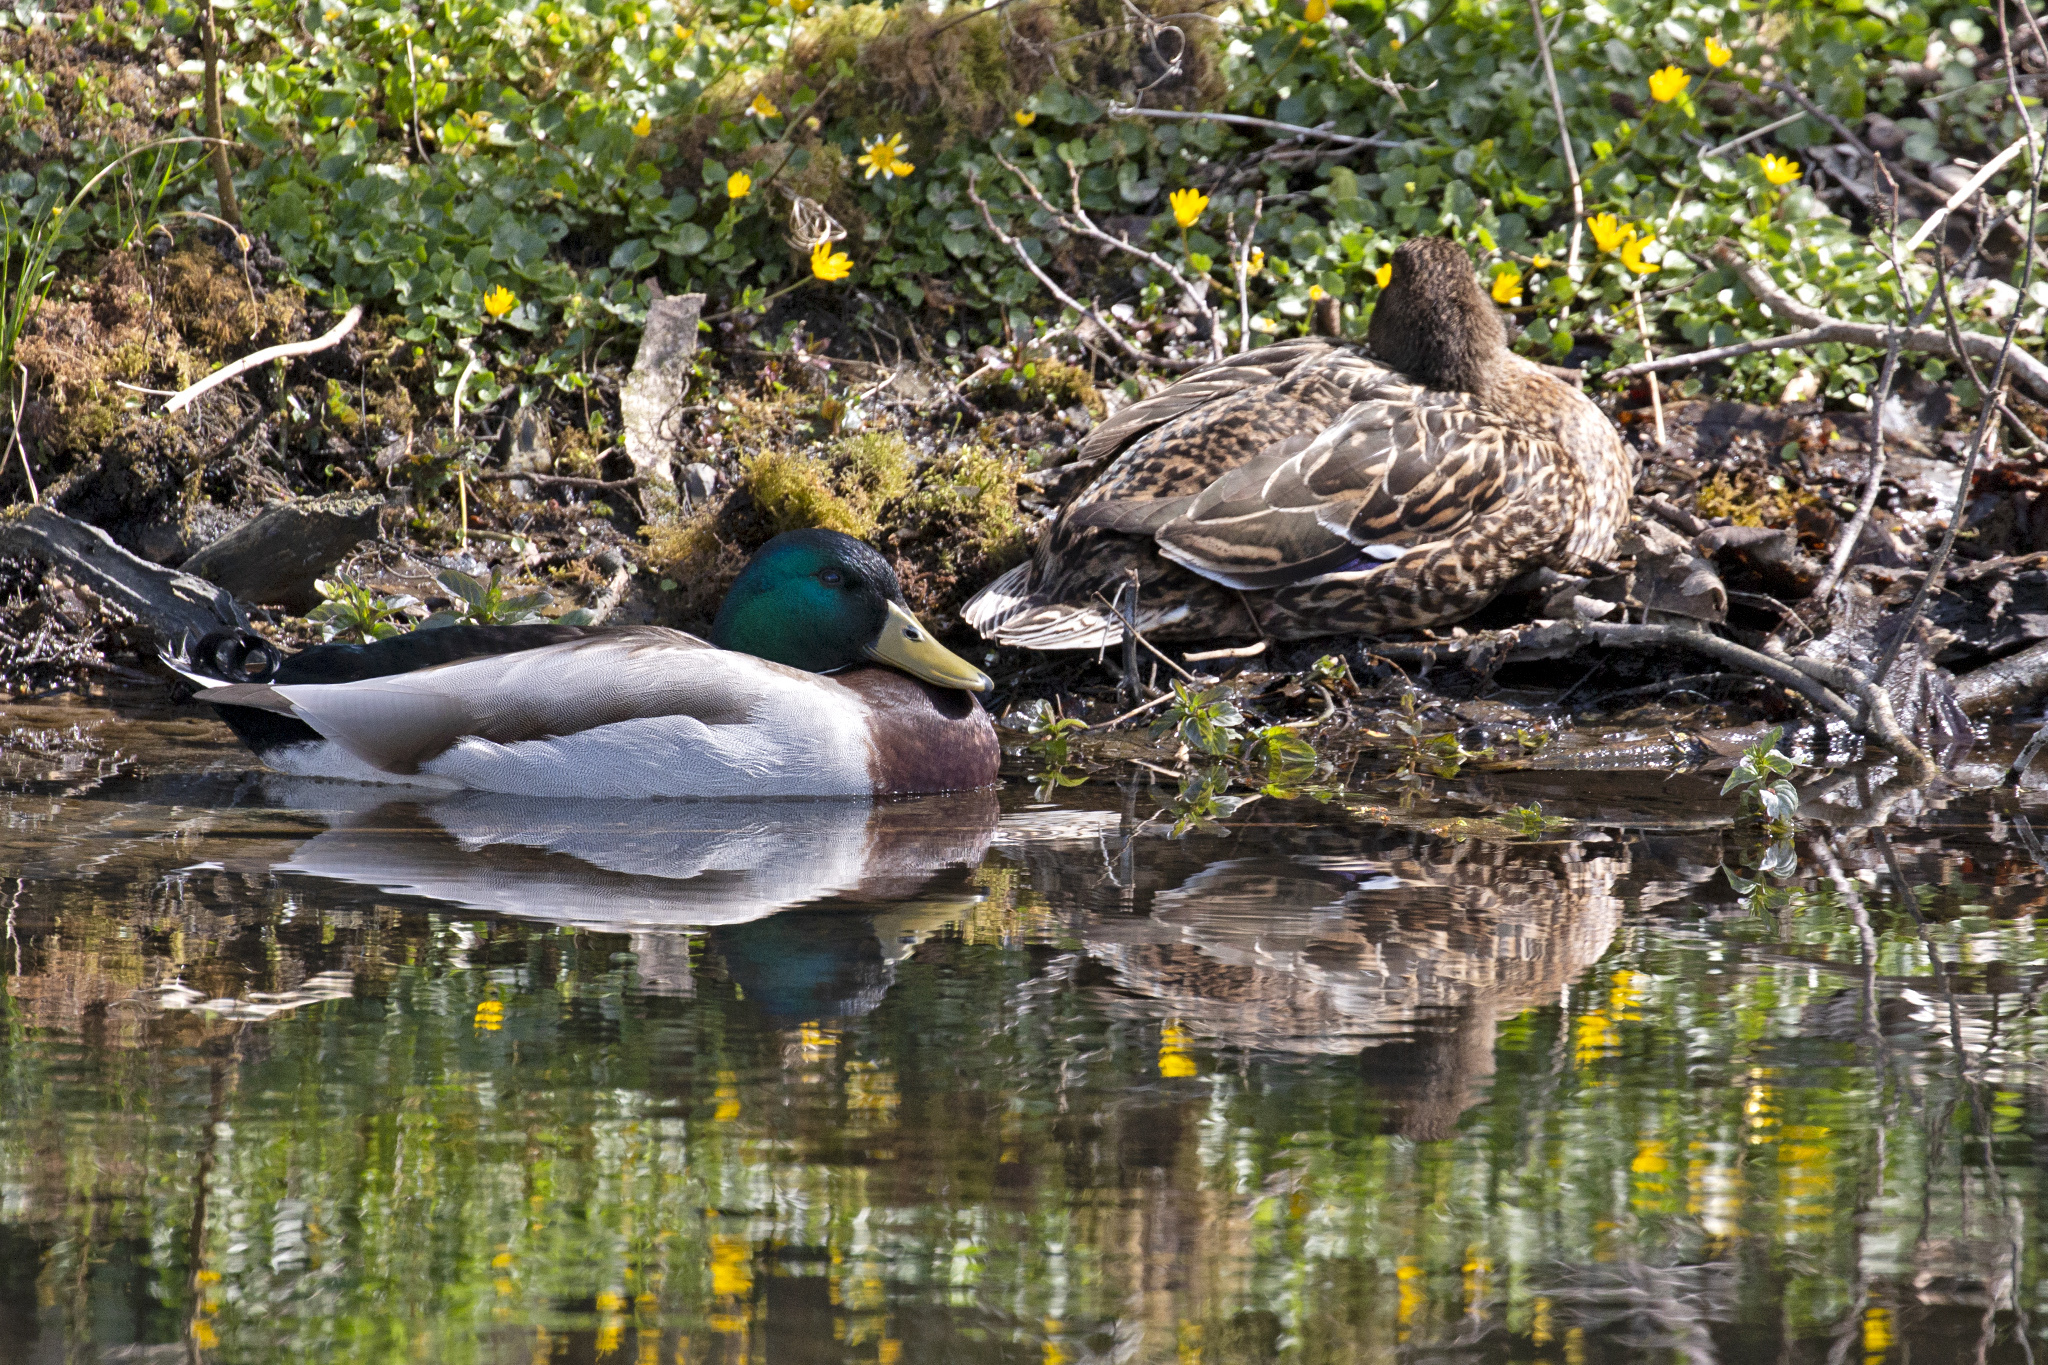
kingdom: Animalia
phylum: Chordata
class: Aves
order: Anseriformes
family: Anatidae
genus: Anas
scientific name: Anas platyrhynchos
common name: Mallard
